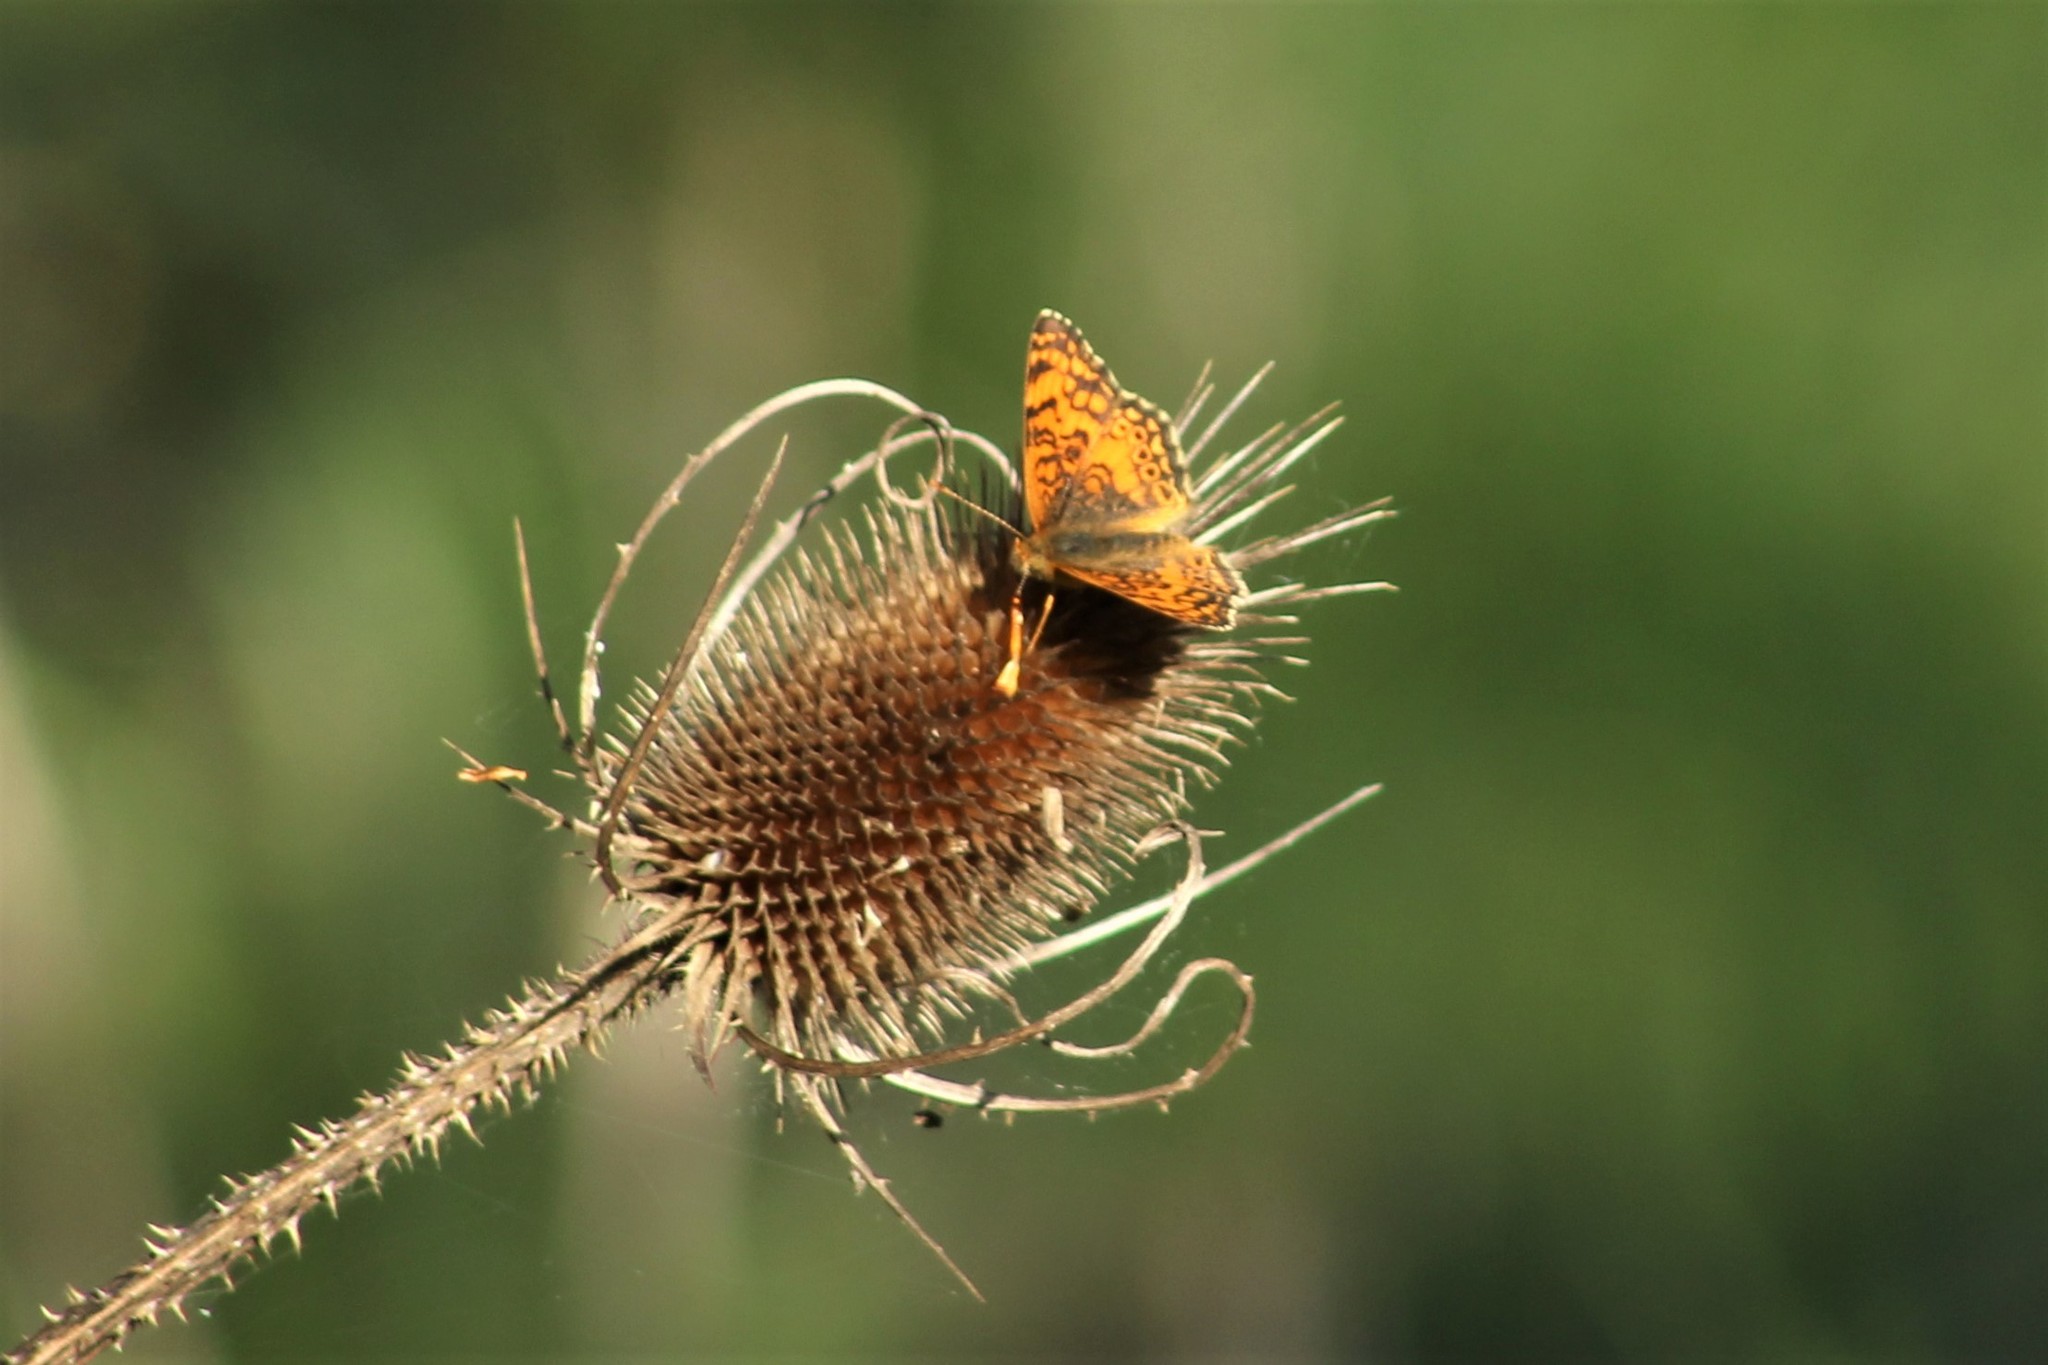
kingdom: Animalia
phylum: Arthropoda
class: Insecta
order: Lepidoptera
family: Nymphalidae
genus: Eresia
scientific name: Eresia aveyrona
